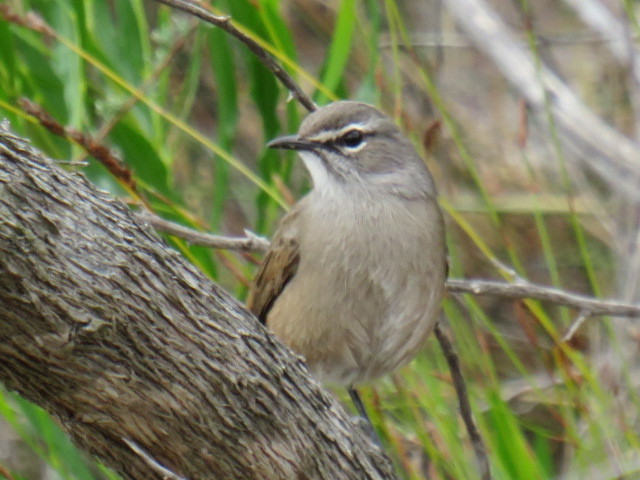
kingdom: Animalia
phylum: Chordata
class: Aves
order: Passeriformes
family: Muscicapidae
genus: Erythropygia
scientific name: Erythropygia coryphoeus
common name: Karoo scrub robin
